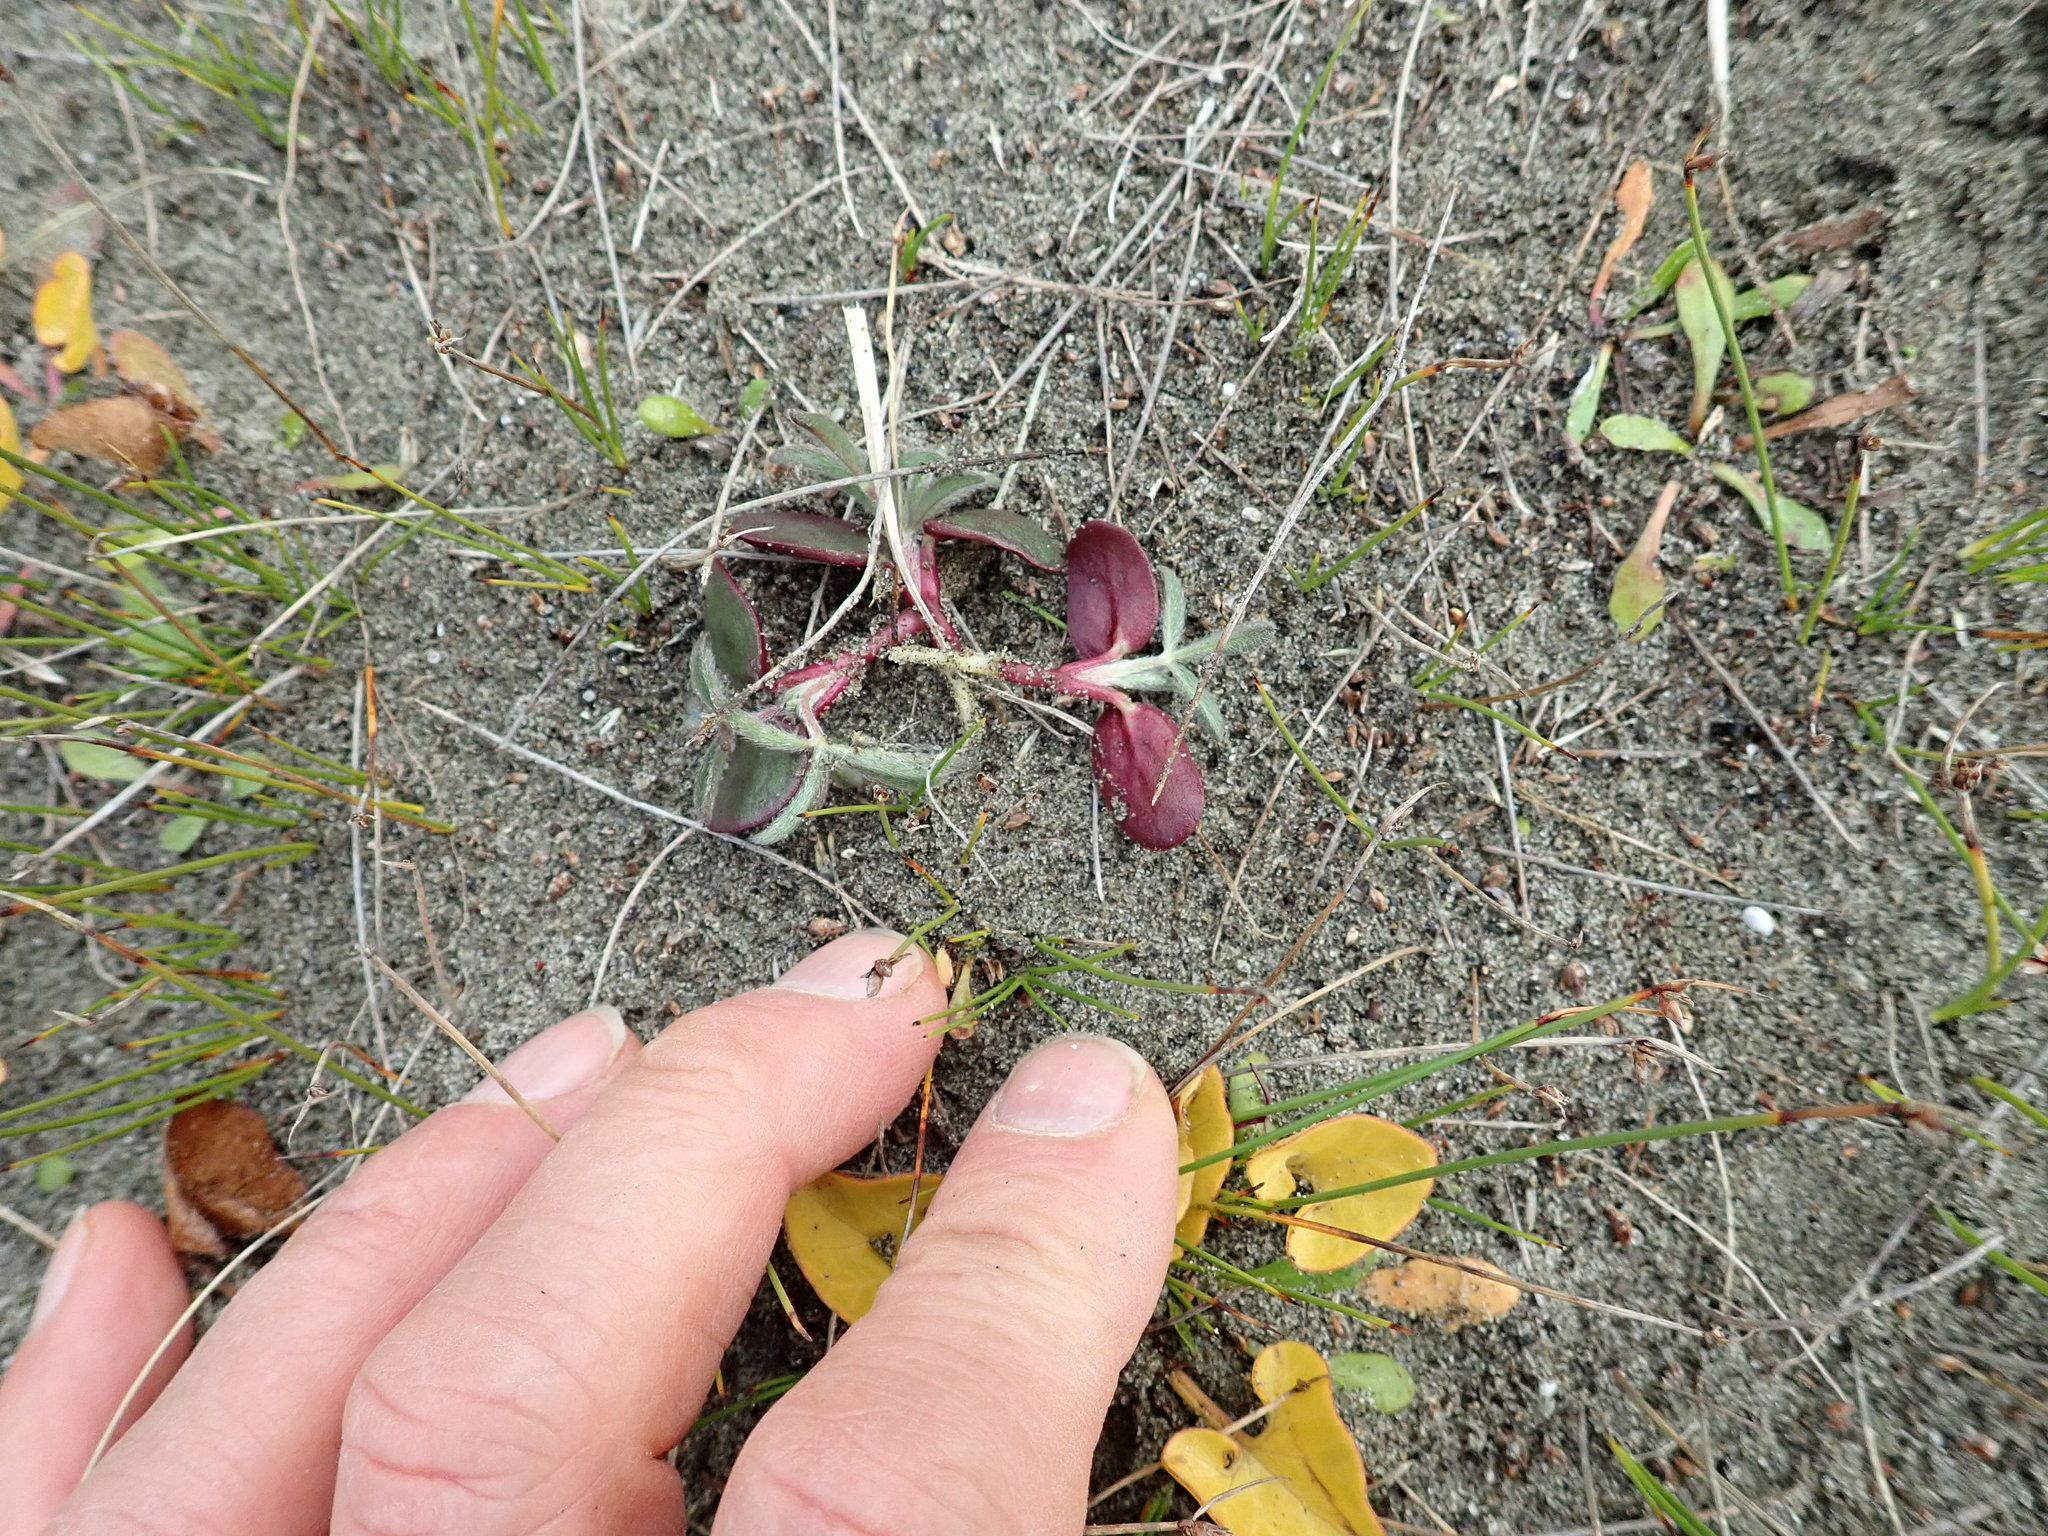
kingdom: Plantae
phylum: Tracheophyta
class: Magnoliopsida
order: Fabales
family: Fabaceae
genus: Lupinus
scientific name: Lupinus arboreus
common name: Yellow bush lupine
